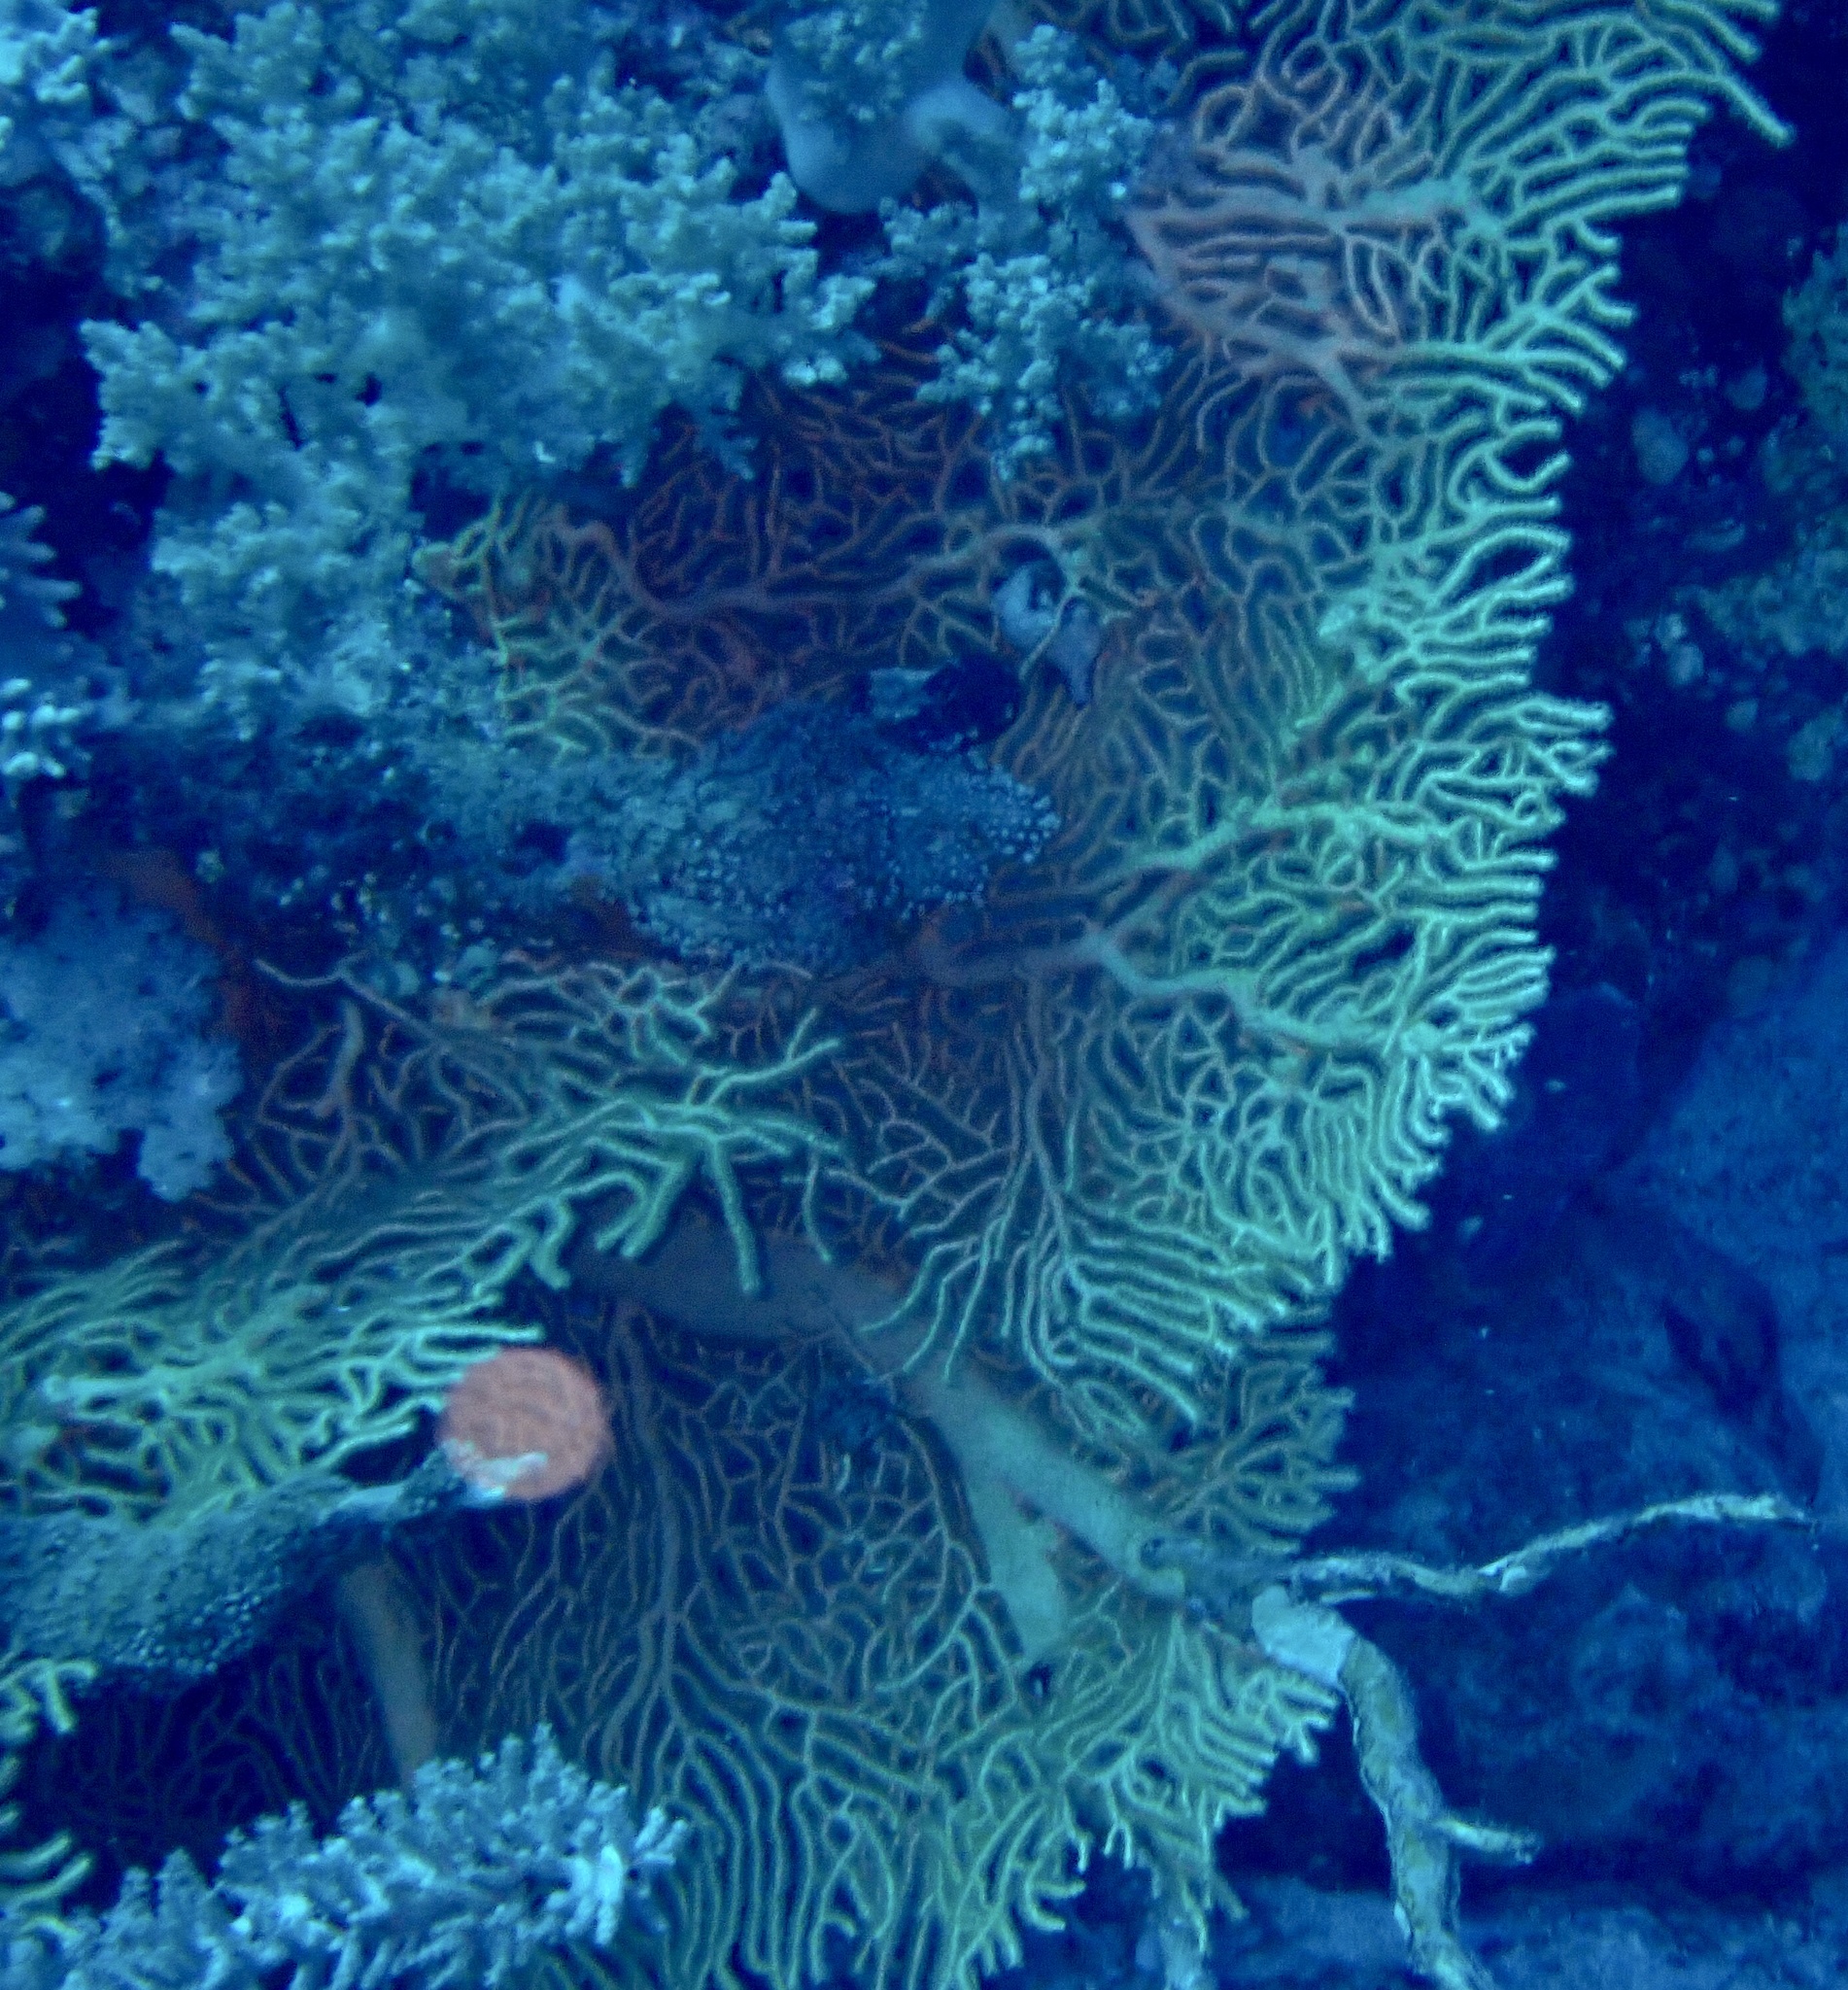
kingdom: Animalia
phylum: Cnidaria
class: Anthozoa
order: Malacalcyonacea
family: Subergorgiidae
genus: Annella
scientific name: Annella mollis
